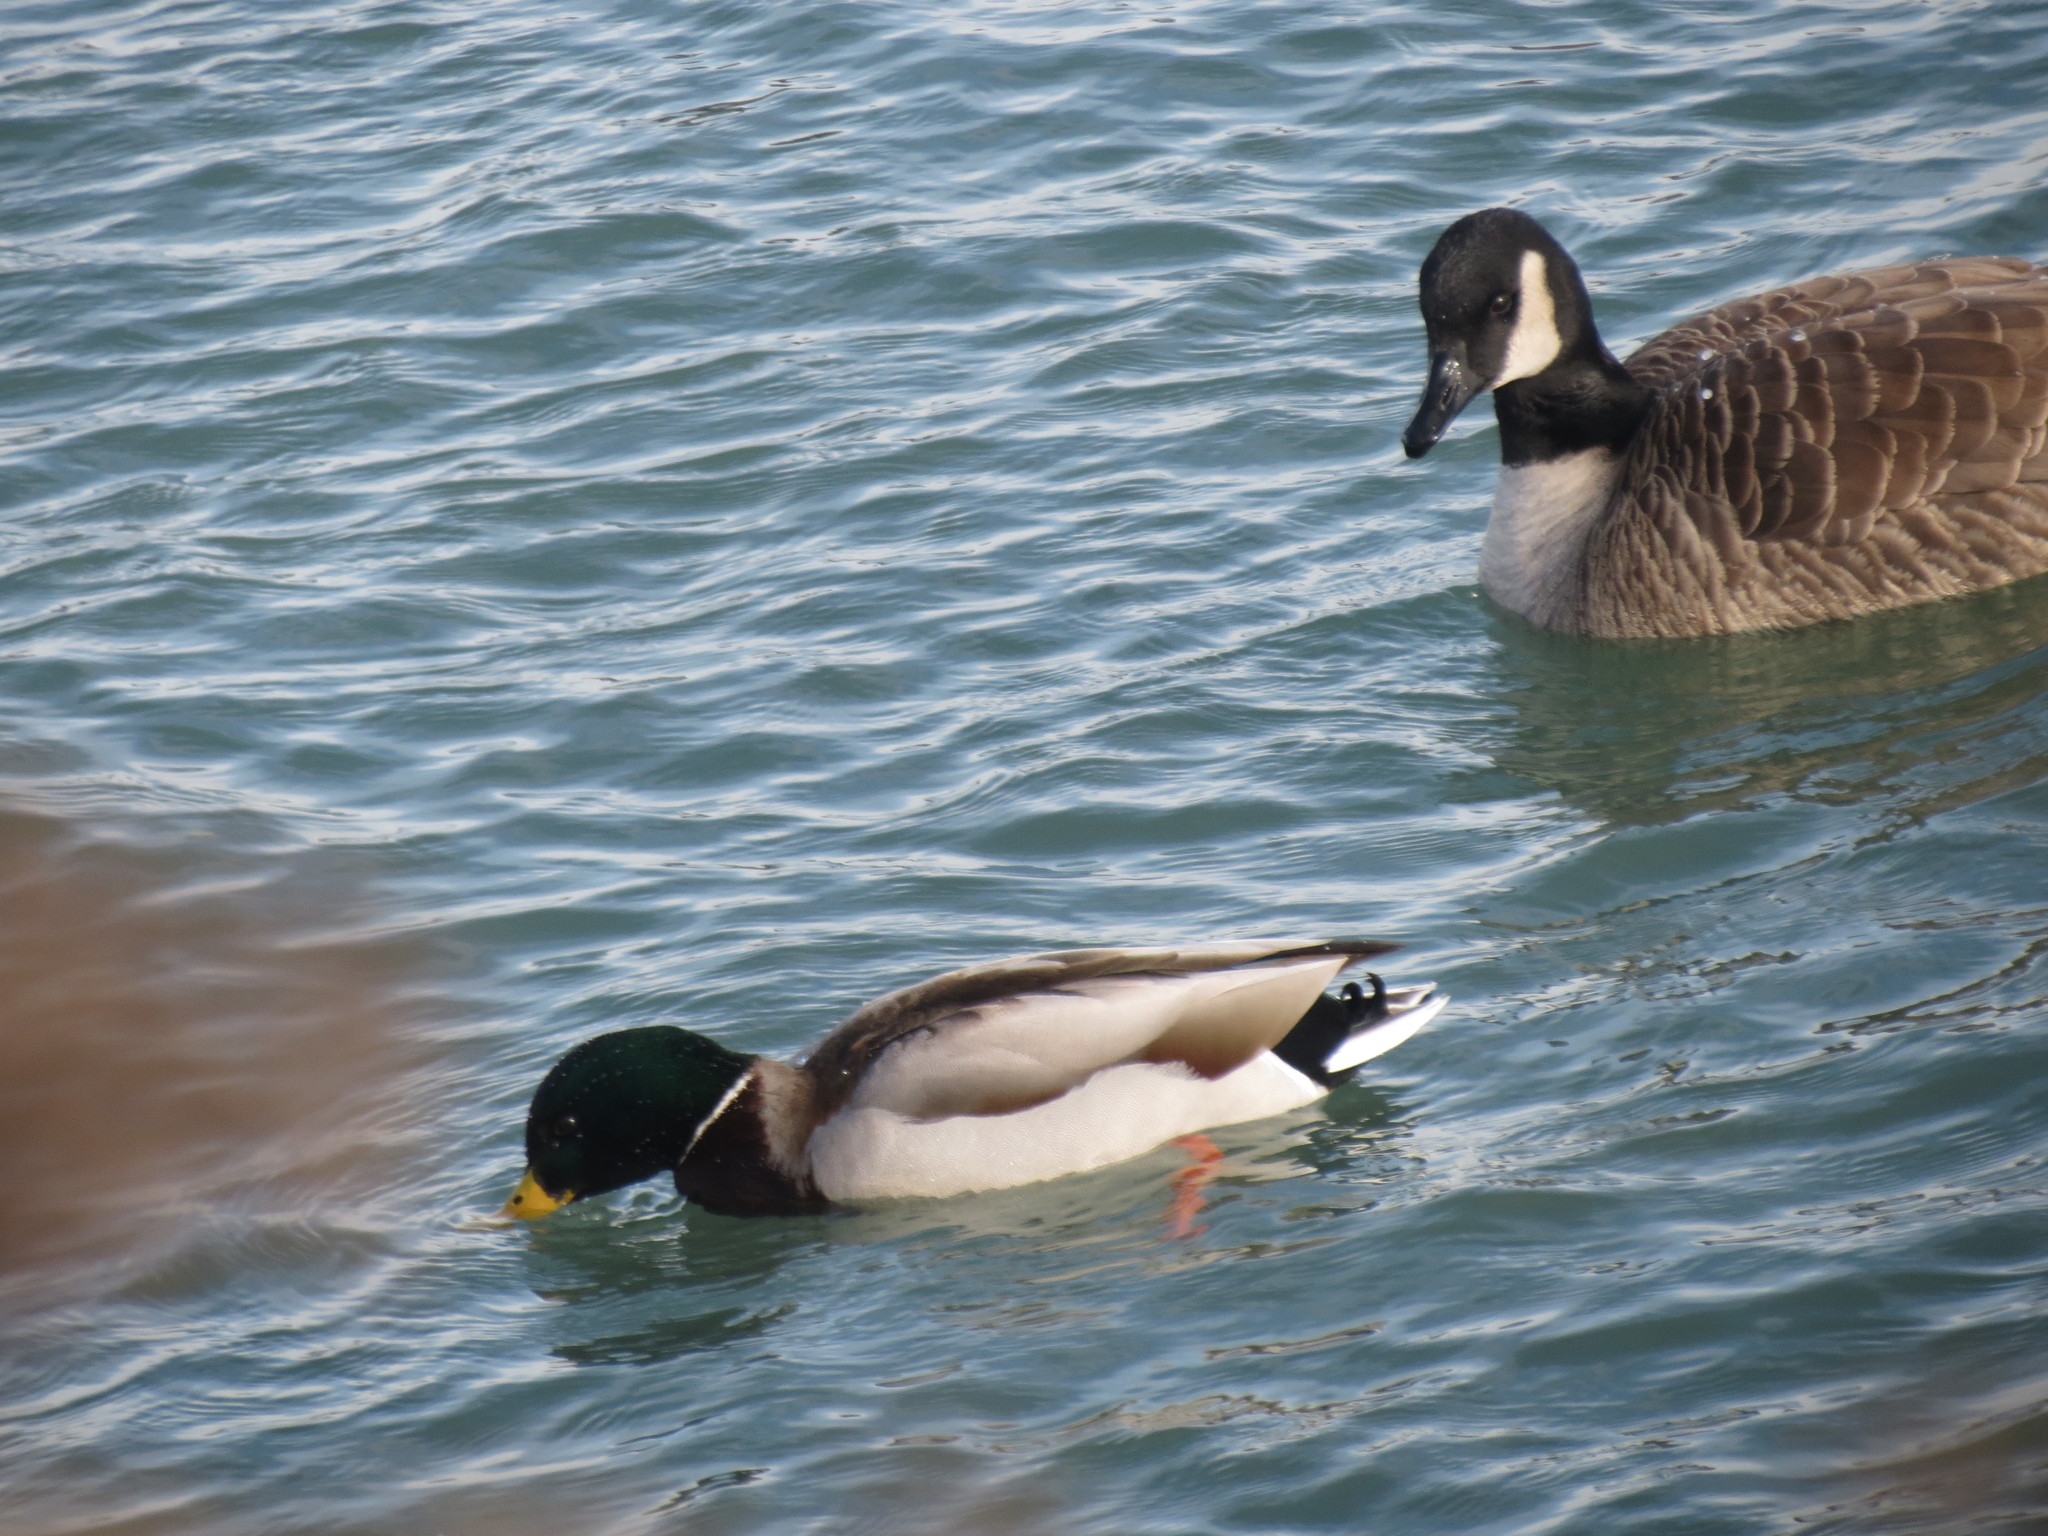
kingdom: Animalia
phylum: Chordata
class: Aves
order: Anseriformes
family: Anatidae
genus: Anas
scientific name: Anas platyrhynchos
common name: Mallard
